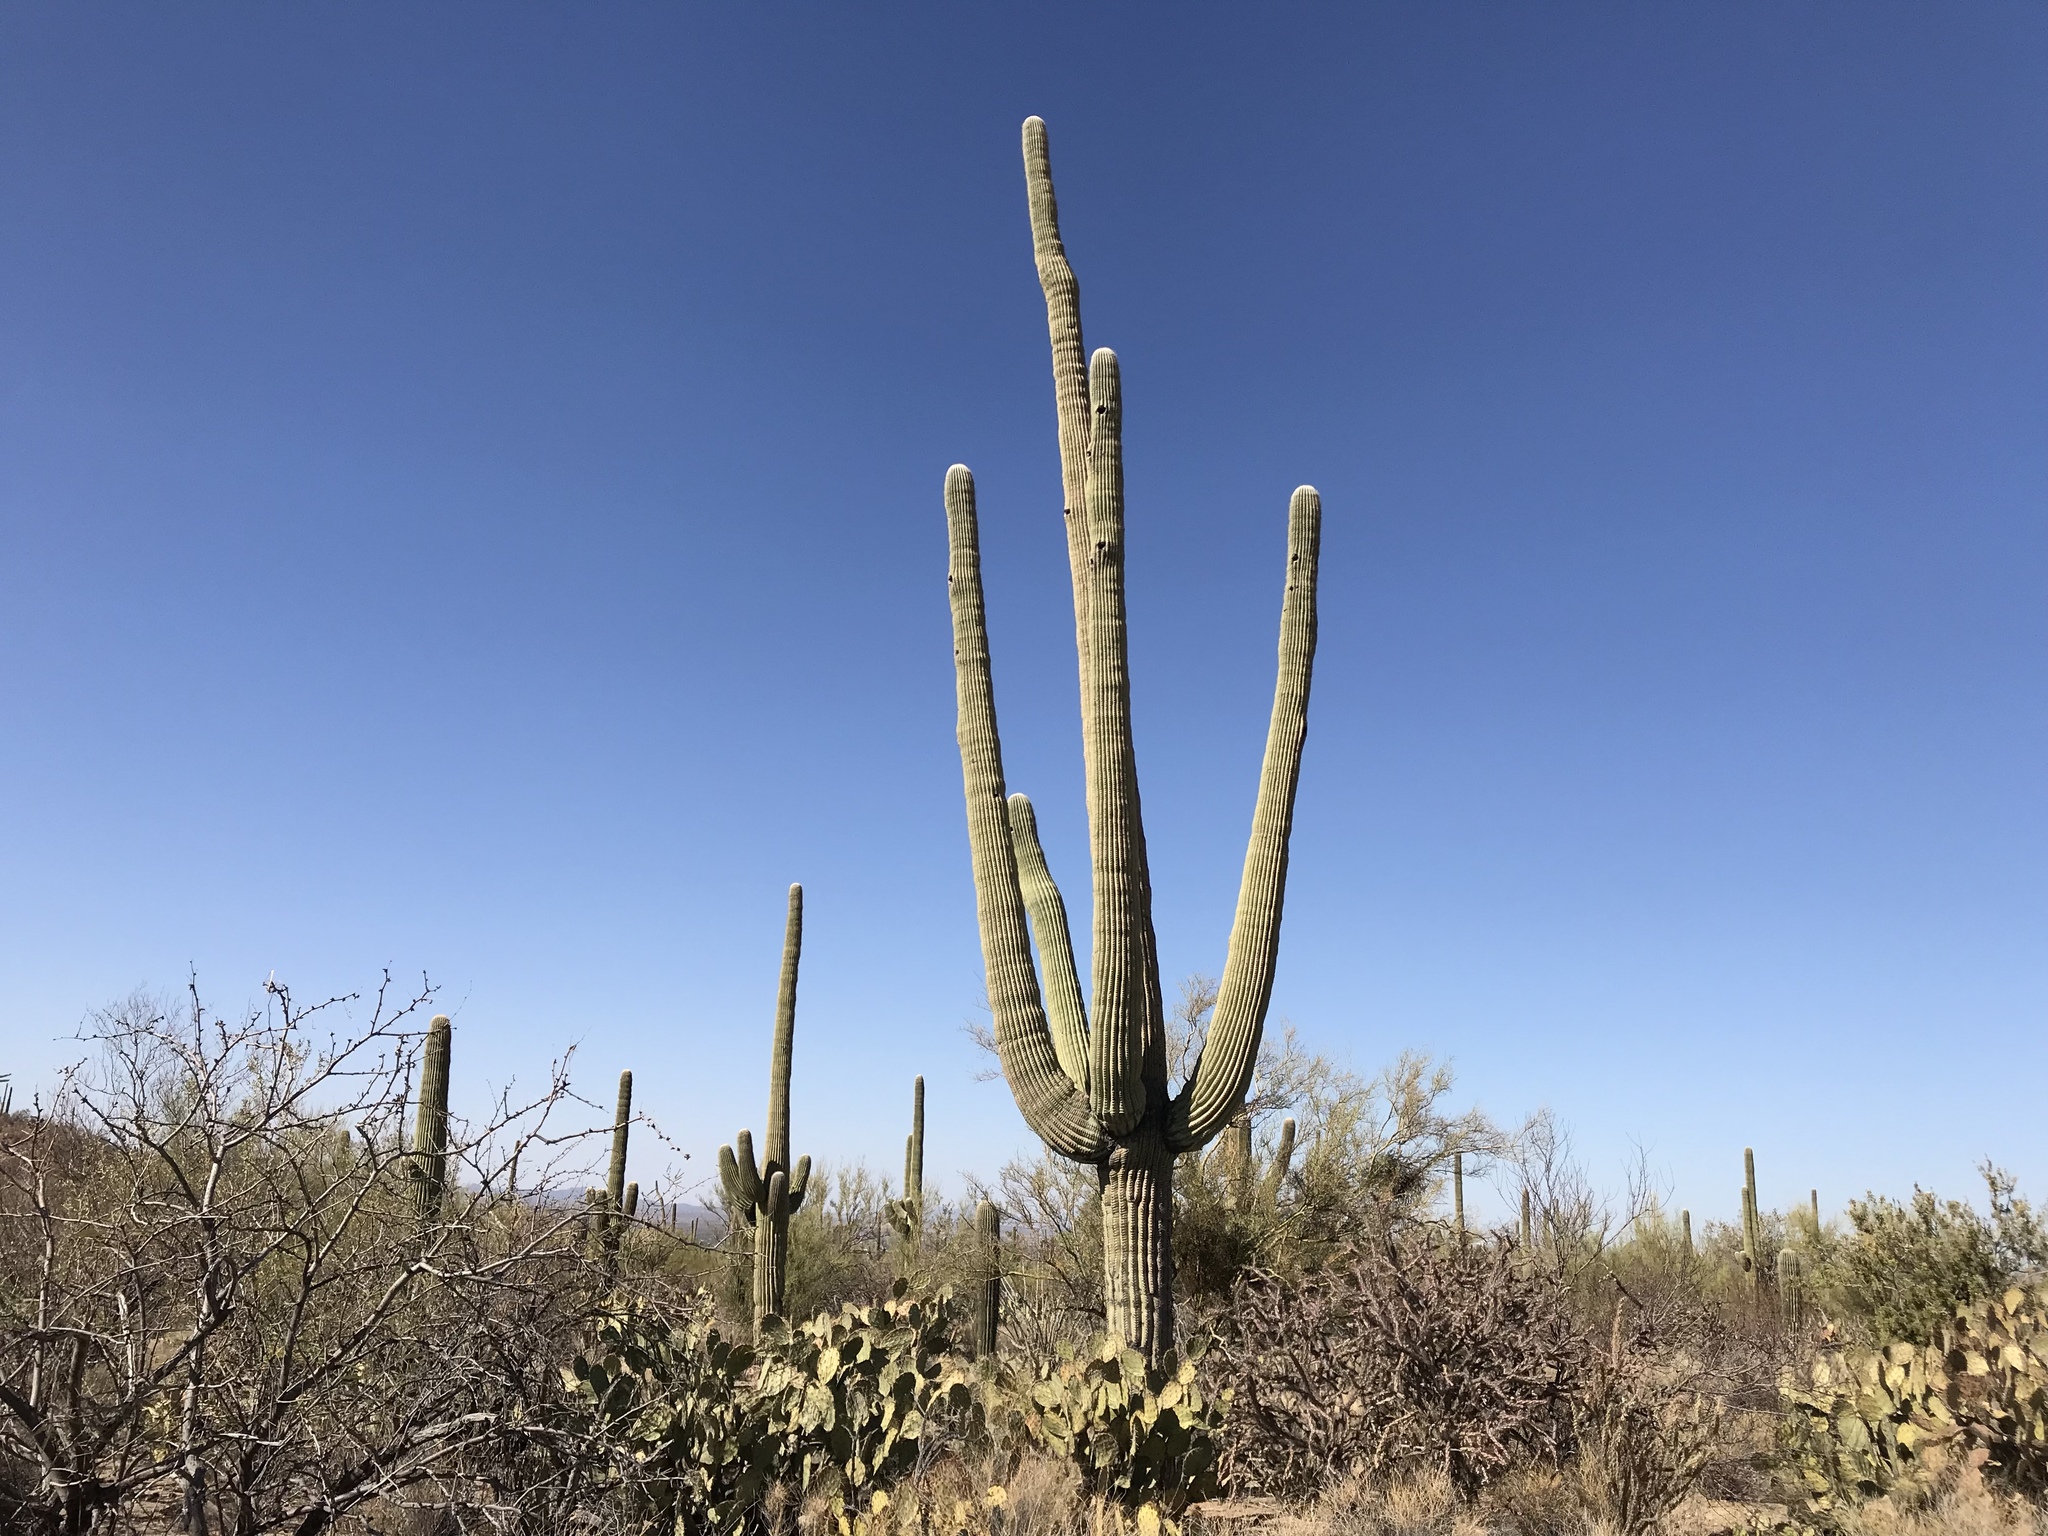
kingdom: Plantae
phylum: Tracheophyta
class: Magnoliopsida
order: Caryophyllales
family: Cactaceae
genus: Carnegiea
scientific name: Carnegiea gigantea
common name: Saguaro
